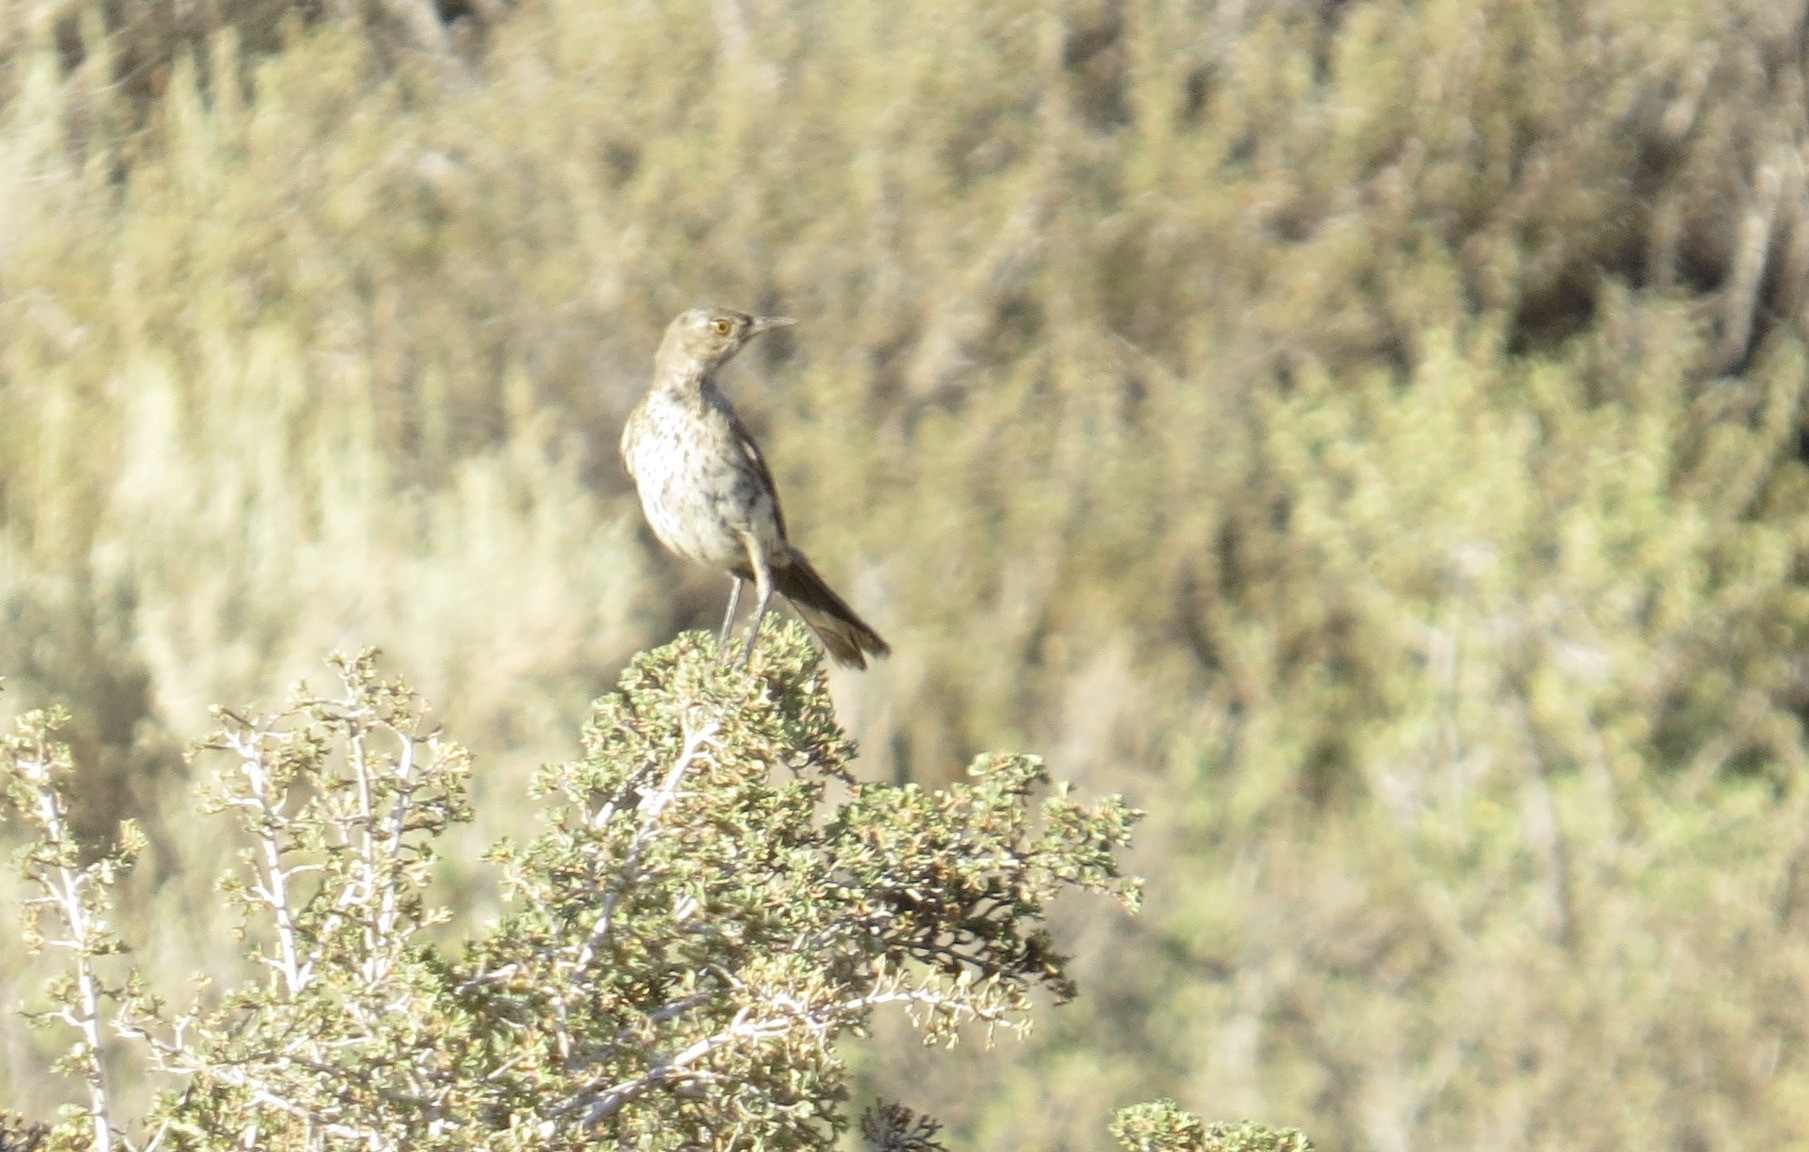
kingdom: Animalia
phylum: Chordata
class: Aves
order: Passeriformes
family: Mimidae
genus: Oreoscoptes
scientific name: Oreoscoptes montanus
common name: Sage thrasher
